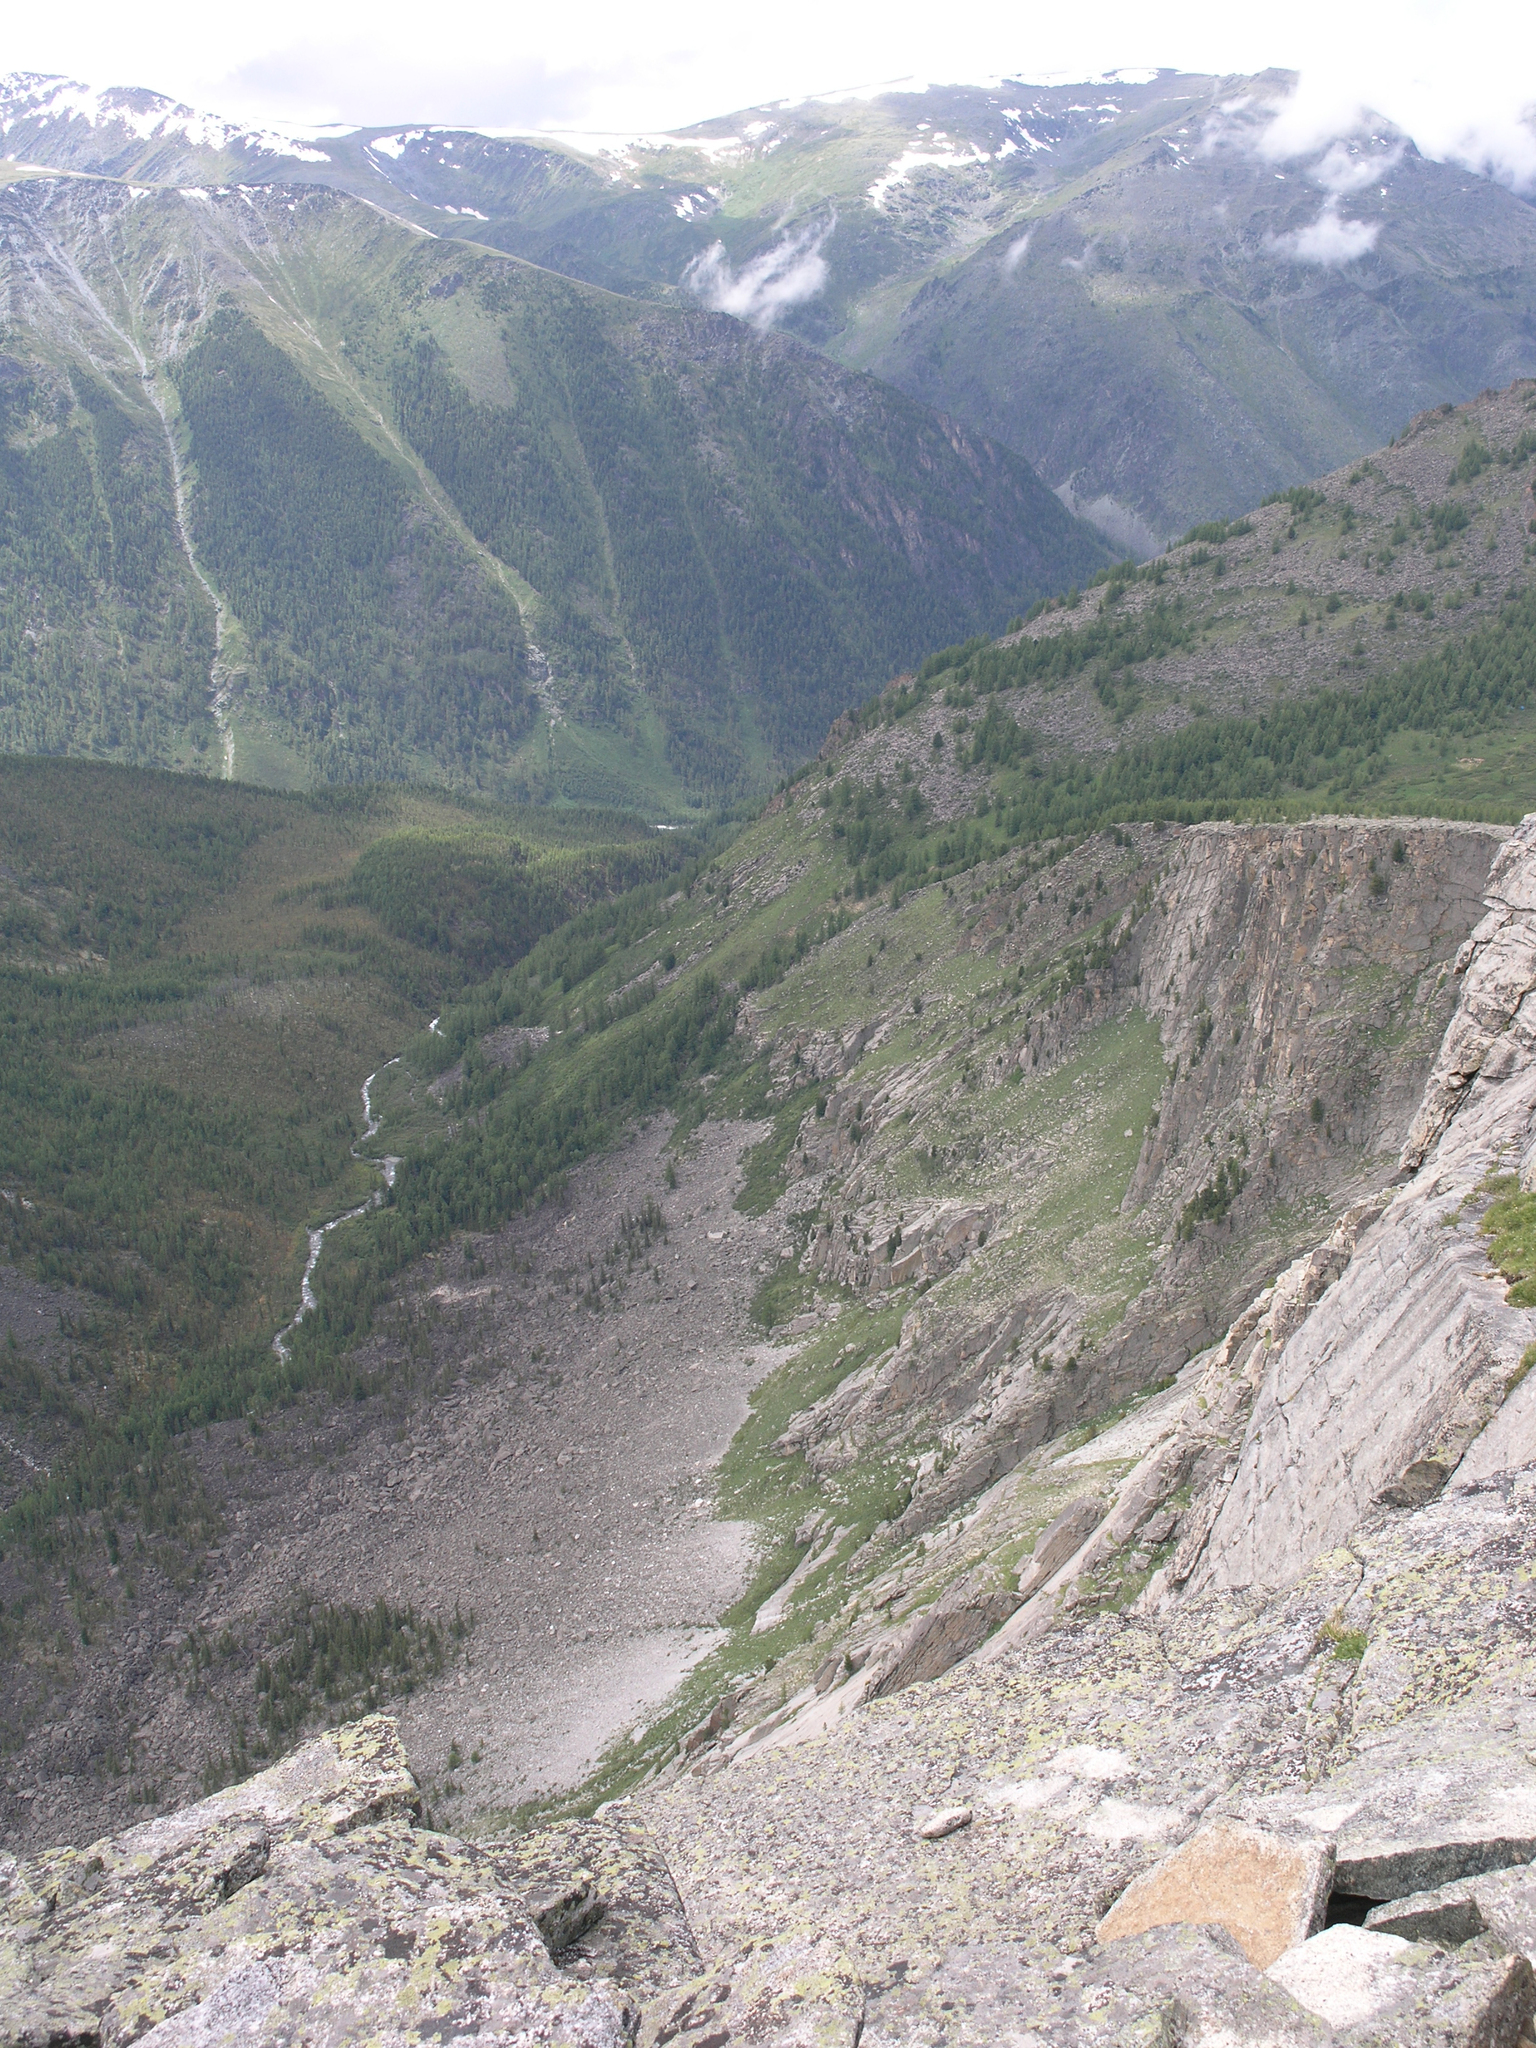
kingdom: Plantae
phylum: Tracheophyta
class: Pinopsida
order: Pinales
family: Pinaceae
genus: Picea
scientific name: Picea obovata
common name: Siberian spruce
